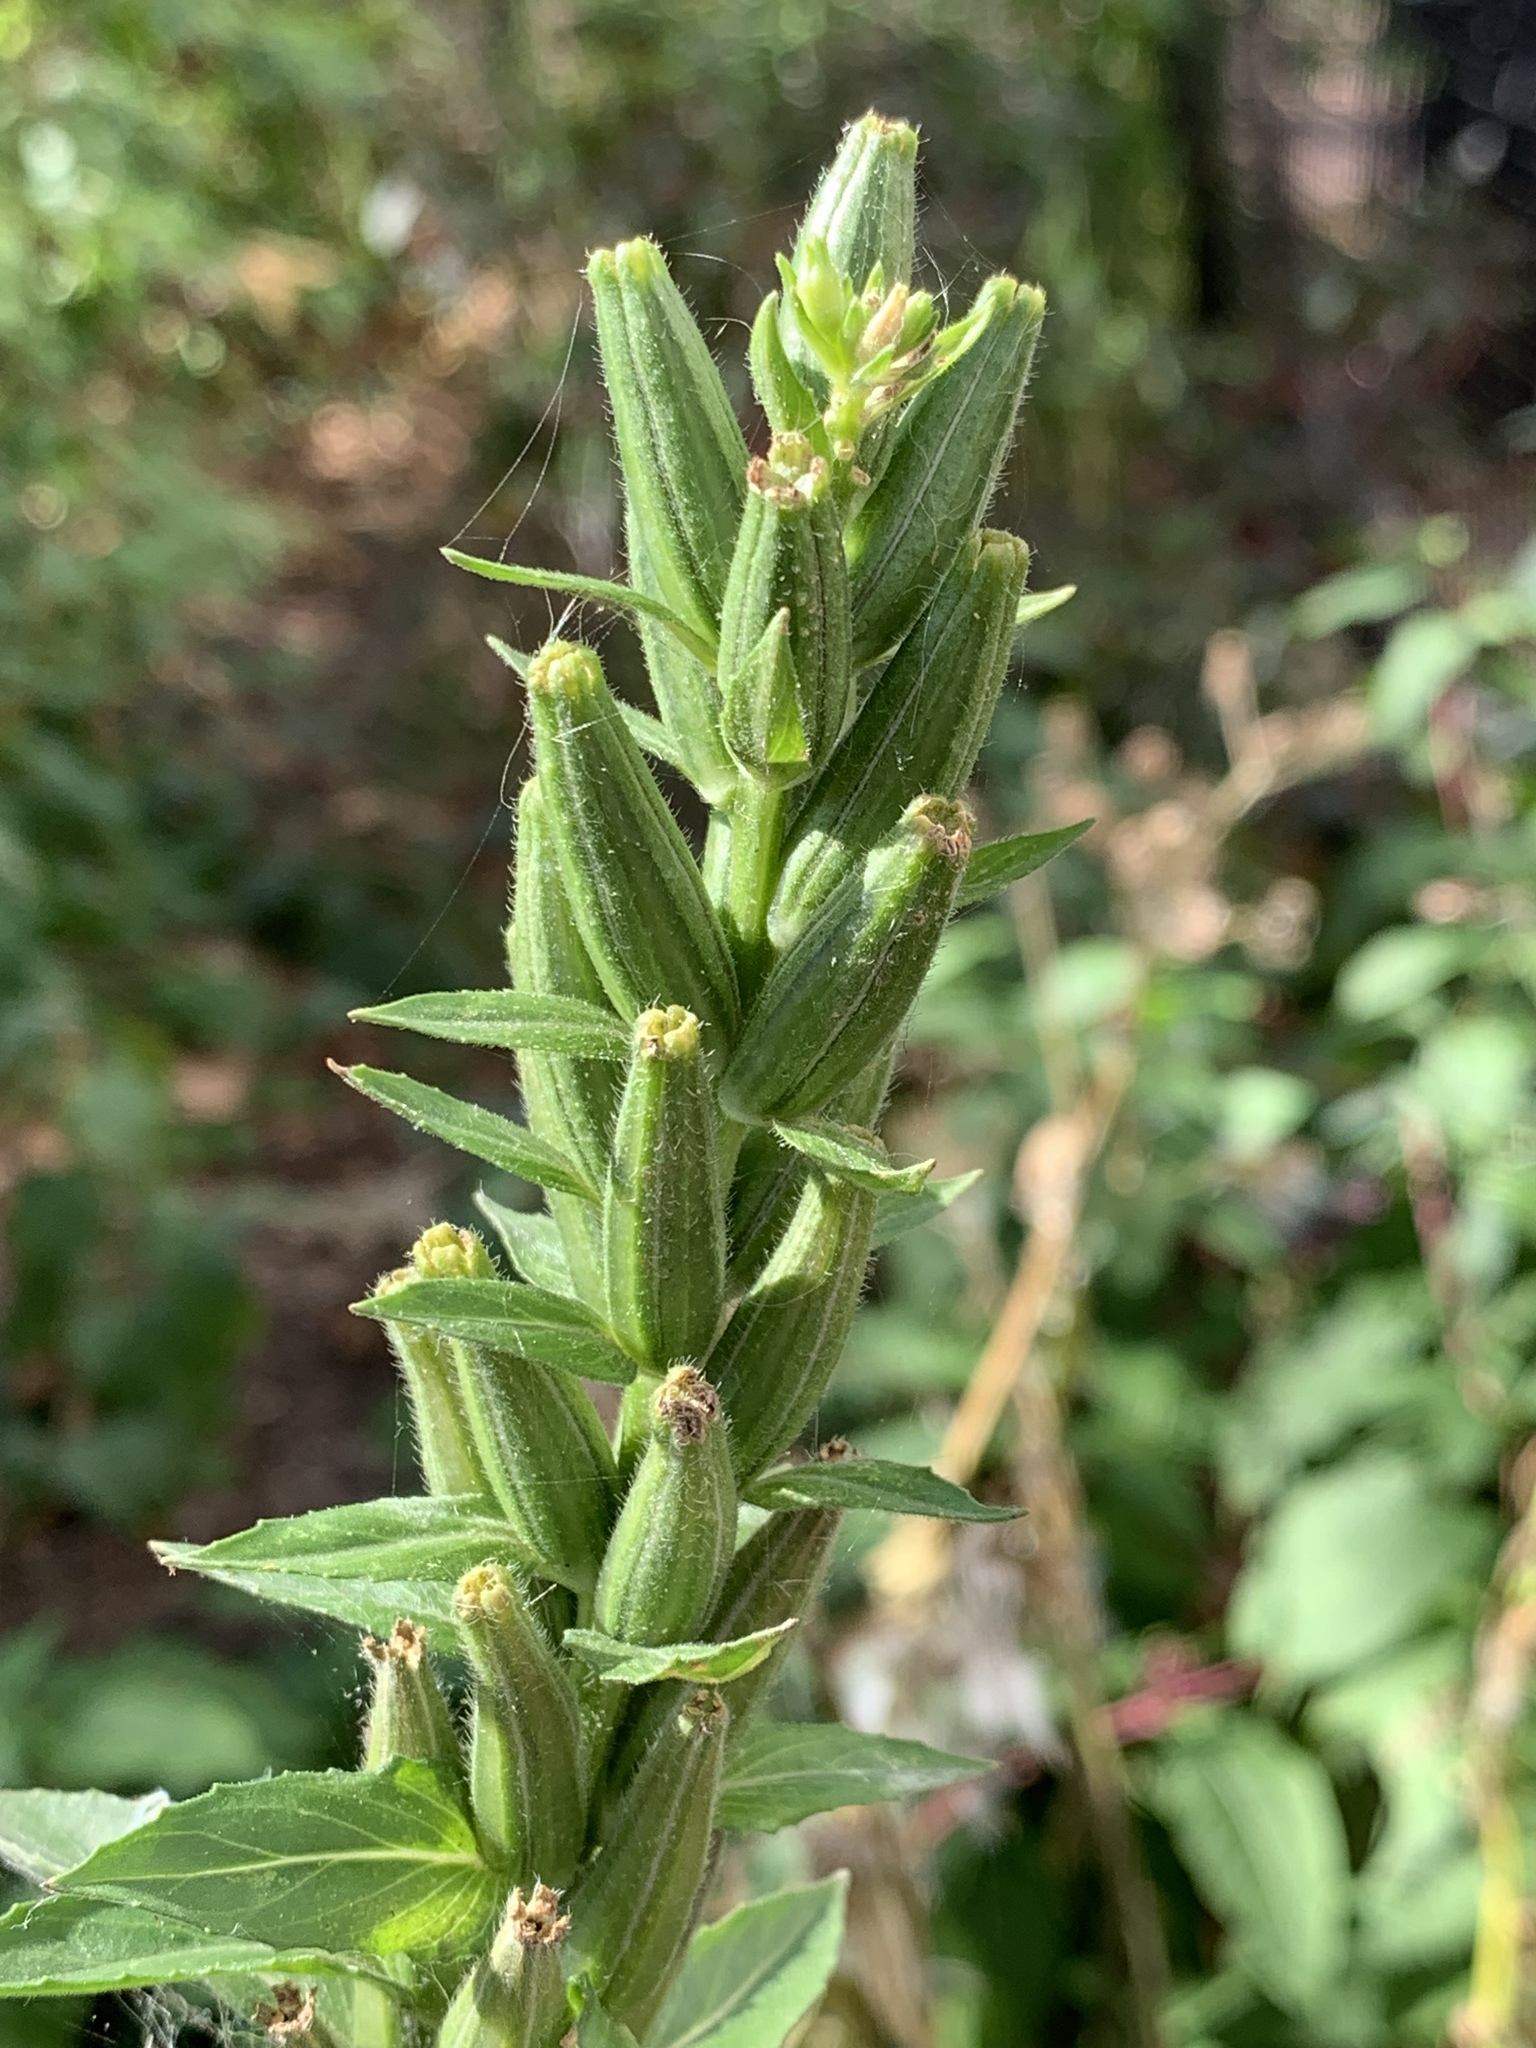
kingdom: Plantae
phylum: Tracheophyta
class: Magnoliopsida
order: Myrtales
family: Onagraceae
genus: Oenothera
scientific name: Oenothera biennis
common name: Common evening-primrose
